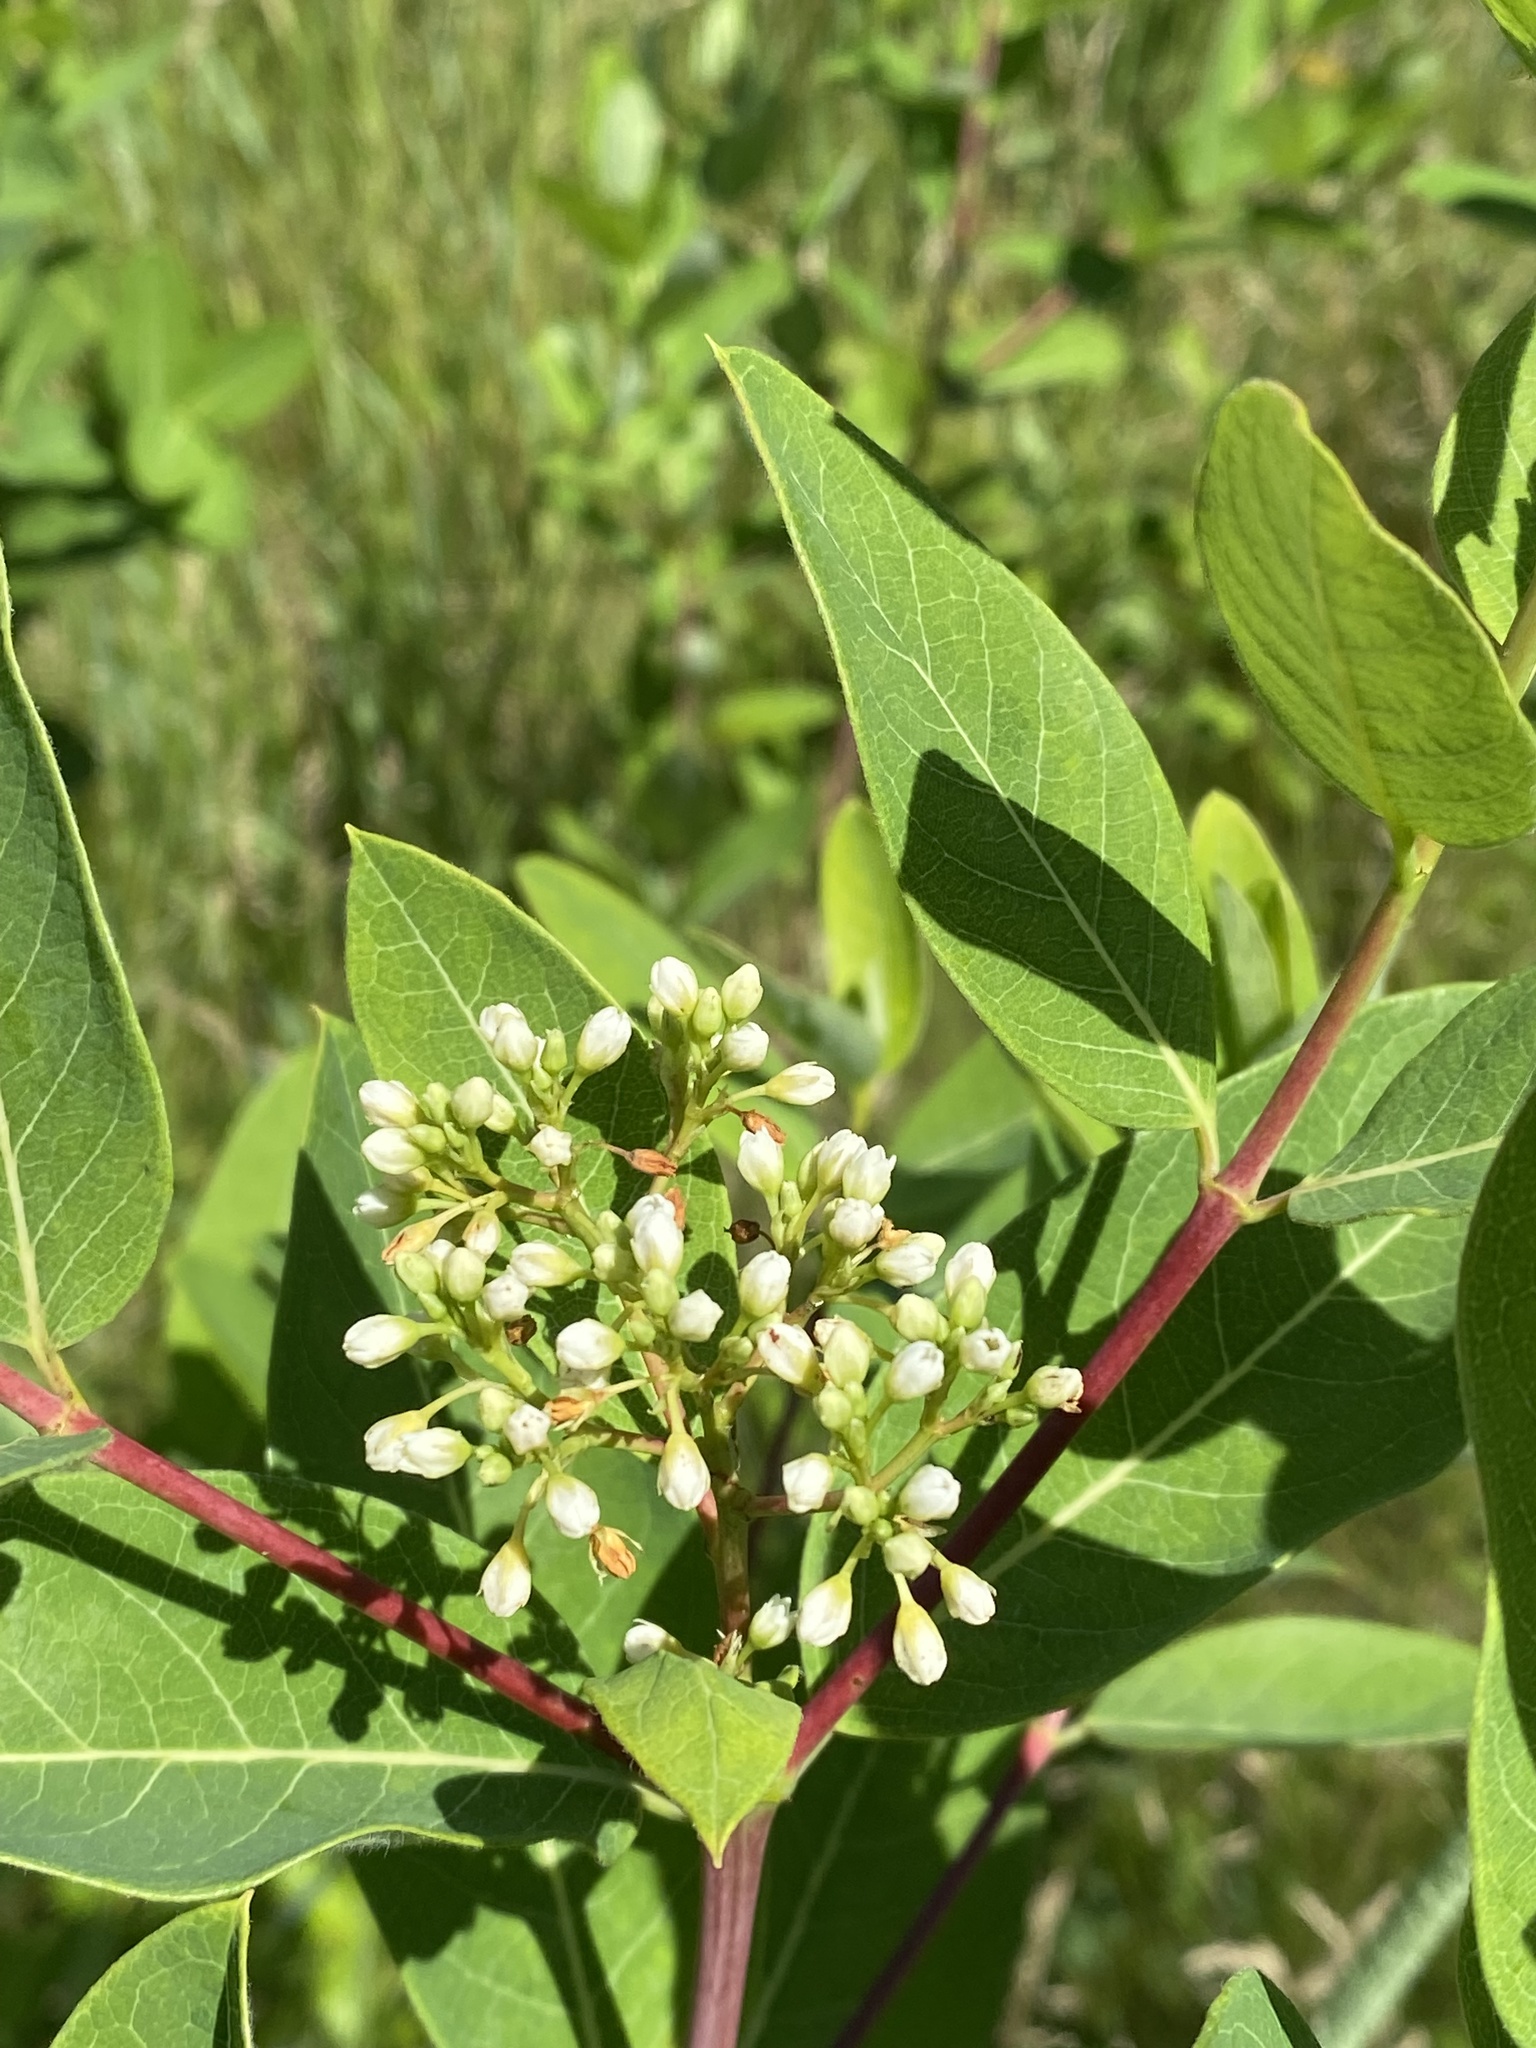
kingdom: Plantae
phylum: Tracheophyta
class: Magnoliopsida
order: Gentianales
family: Apocynaceae
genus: Apocynum
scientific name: Apocynum cannabinum
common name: Hemp dogbane
